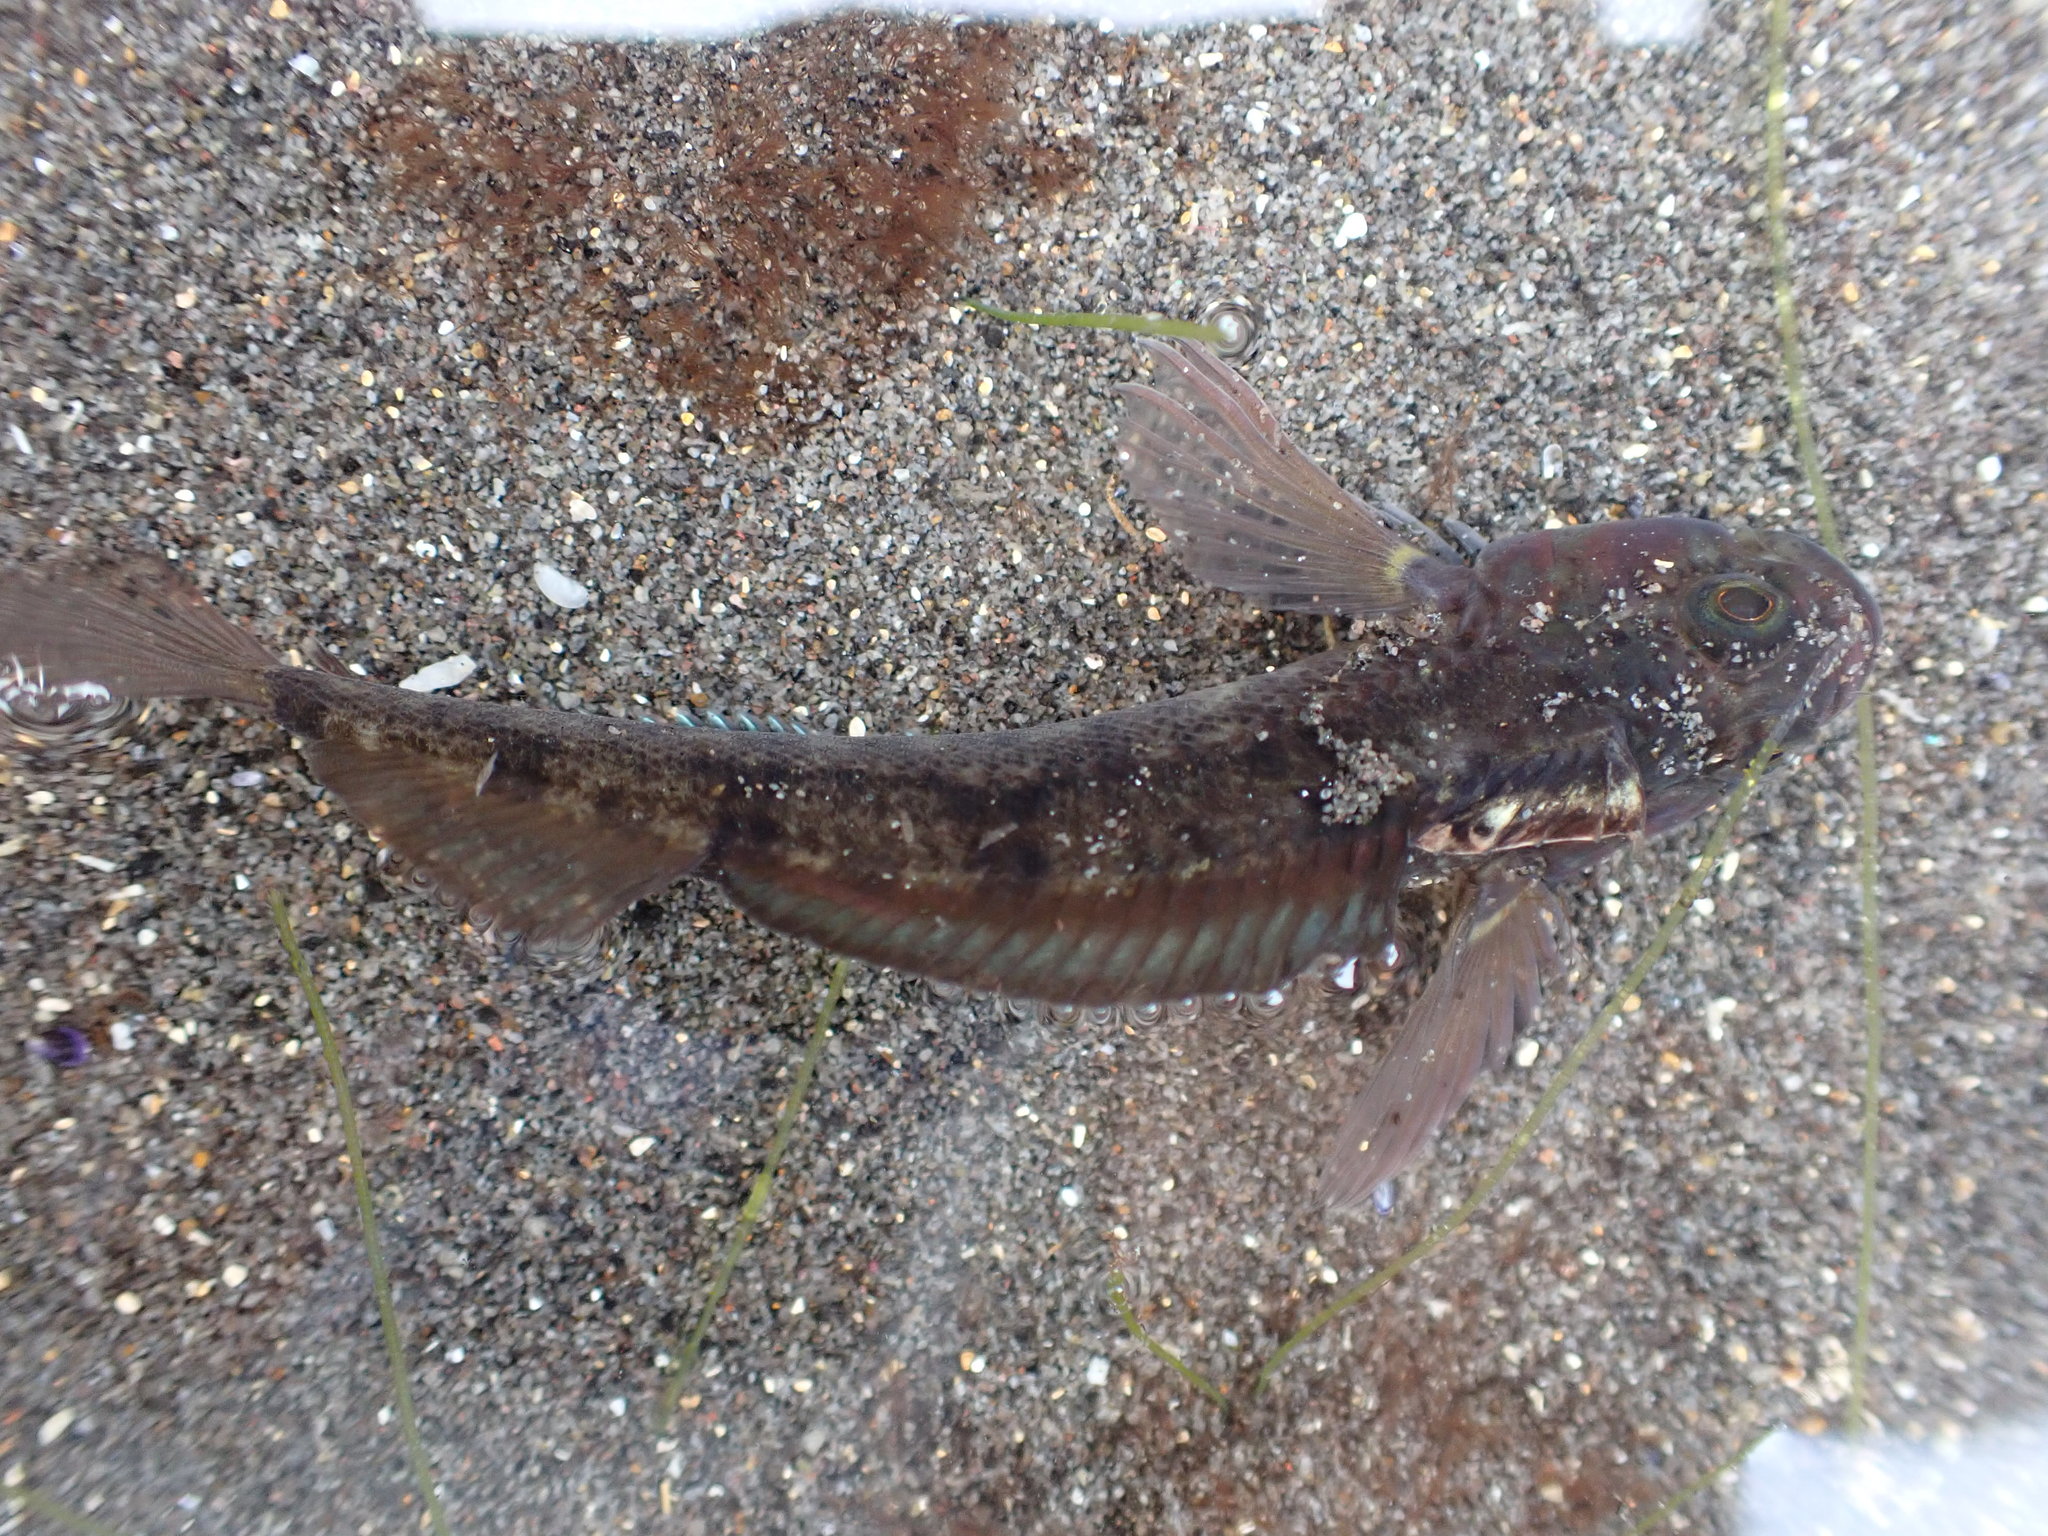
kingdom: Animalia
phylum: Chordata
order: Perciformes
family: Tripterygiidae
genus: Forsterygion
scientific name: Forsterygion gymnotum
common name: Multifid-tentacled robust triplefin
